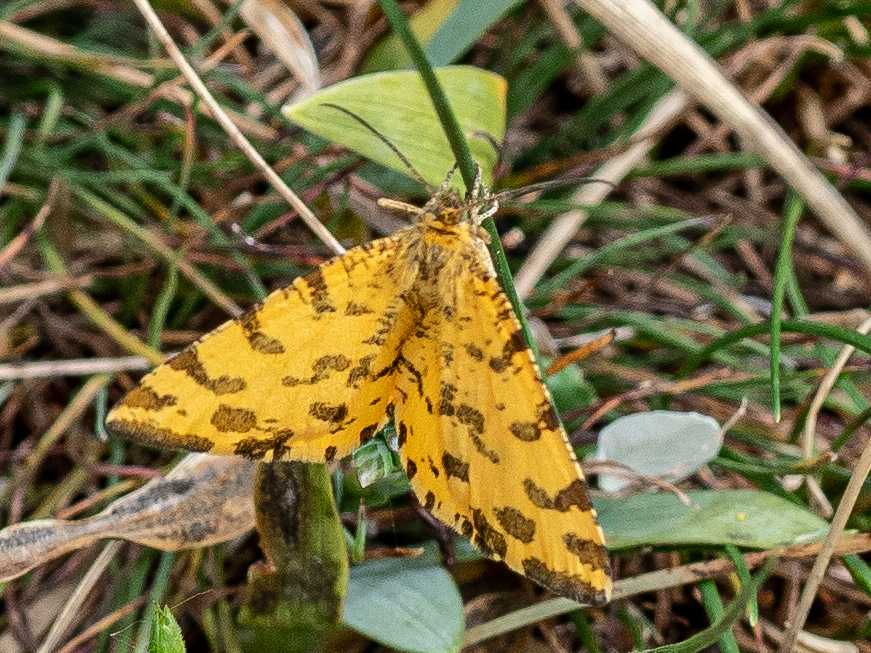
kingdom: Animalia
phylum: Arthropoda
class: Insecta
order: Lepidoptera
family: Geometridae
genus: Pseudopanthera
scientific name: Pseudopanthera macularia
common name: Speckled yellow
